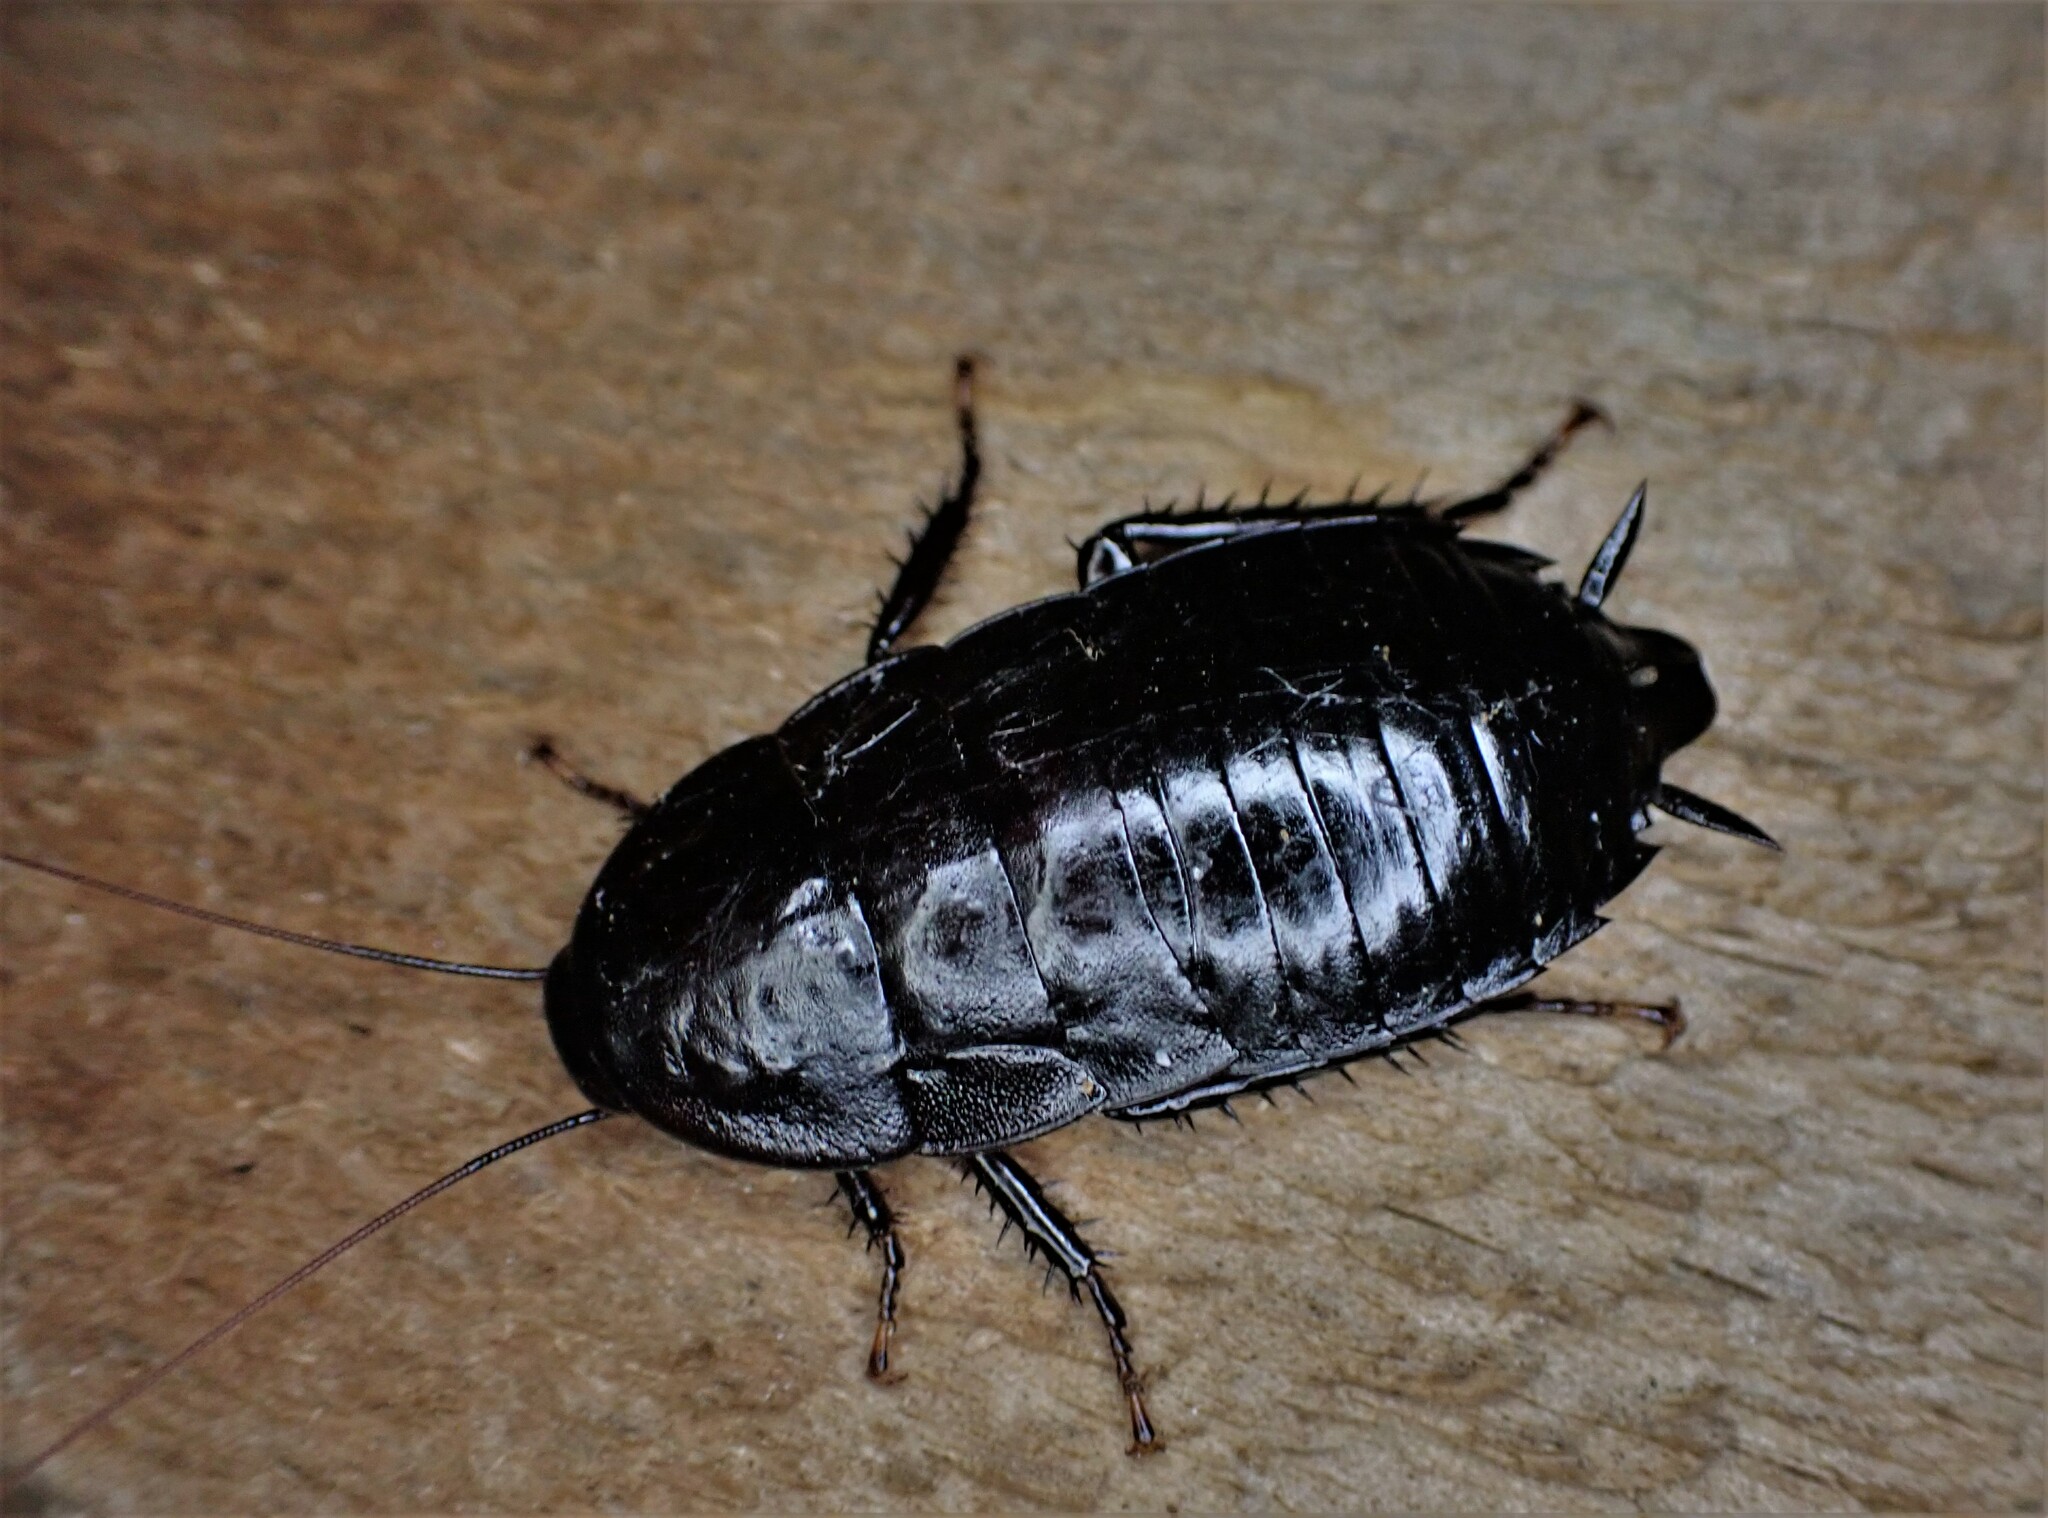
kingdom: Animalia
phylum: Arthropoda
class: Insecta
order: Blattodea
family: Blattidae
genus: Maoriblatta
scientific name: Maoriblatta novaeseelandiae
